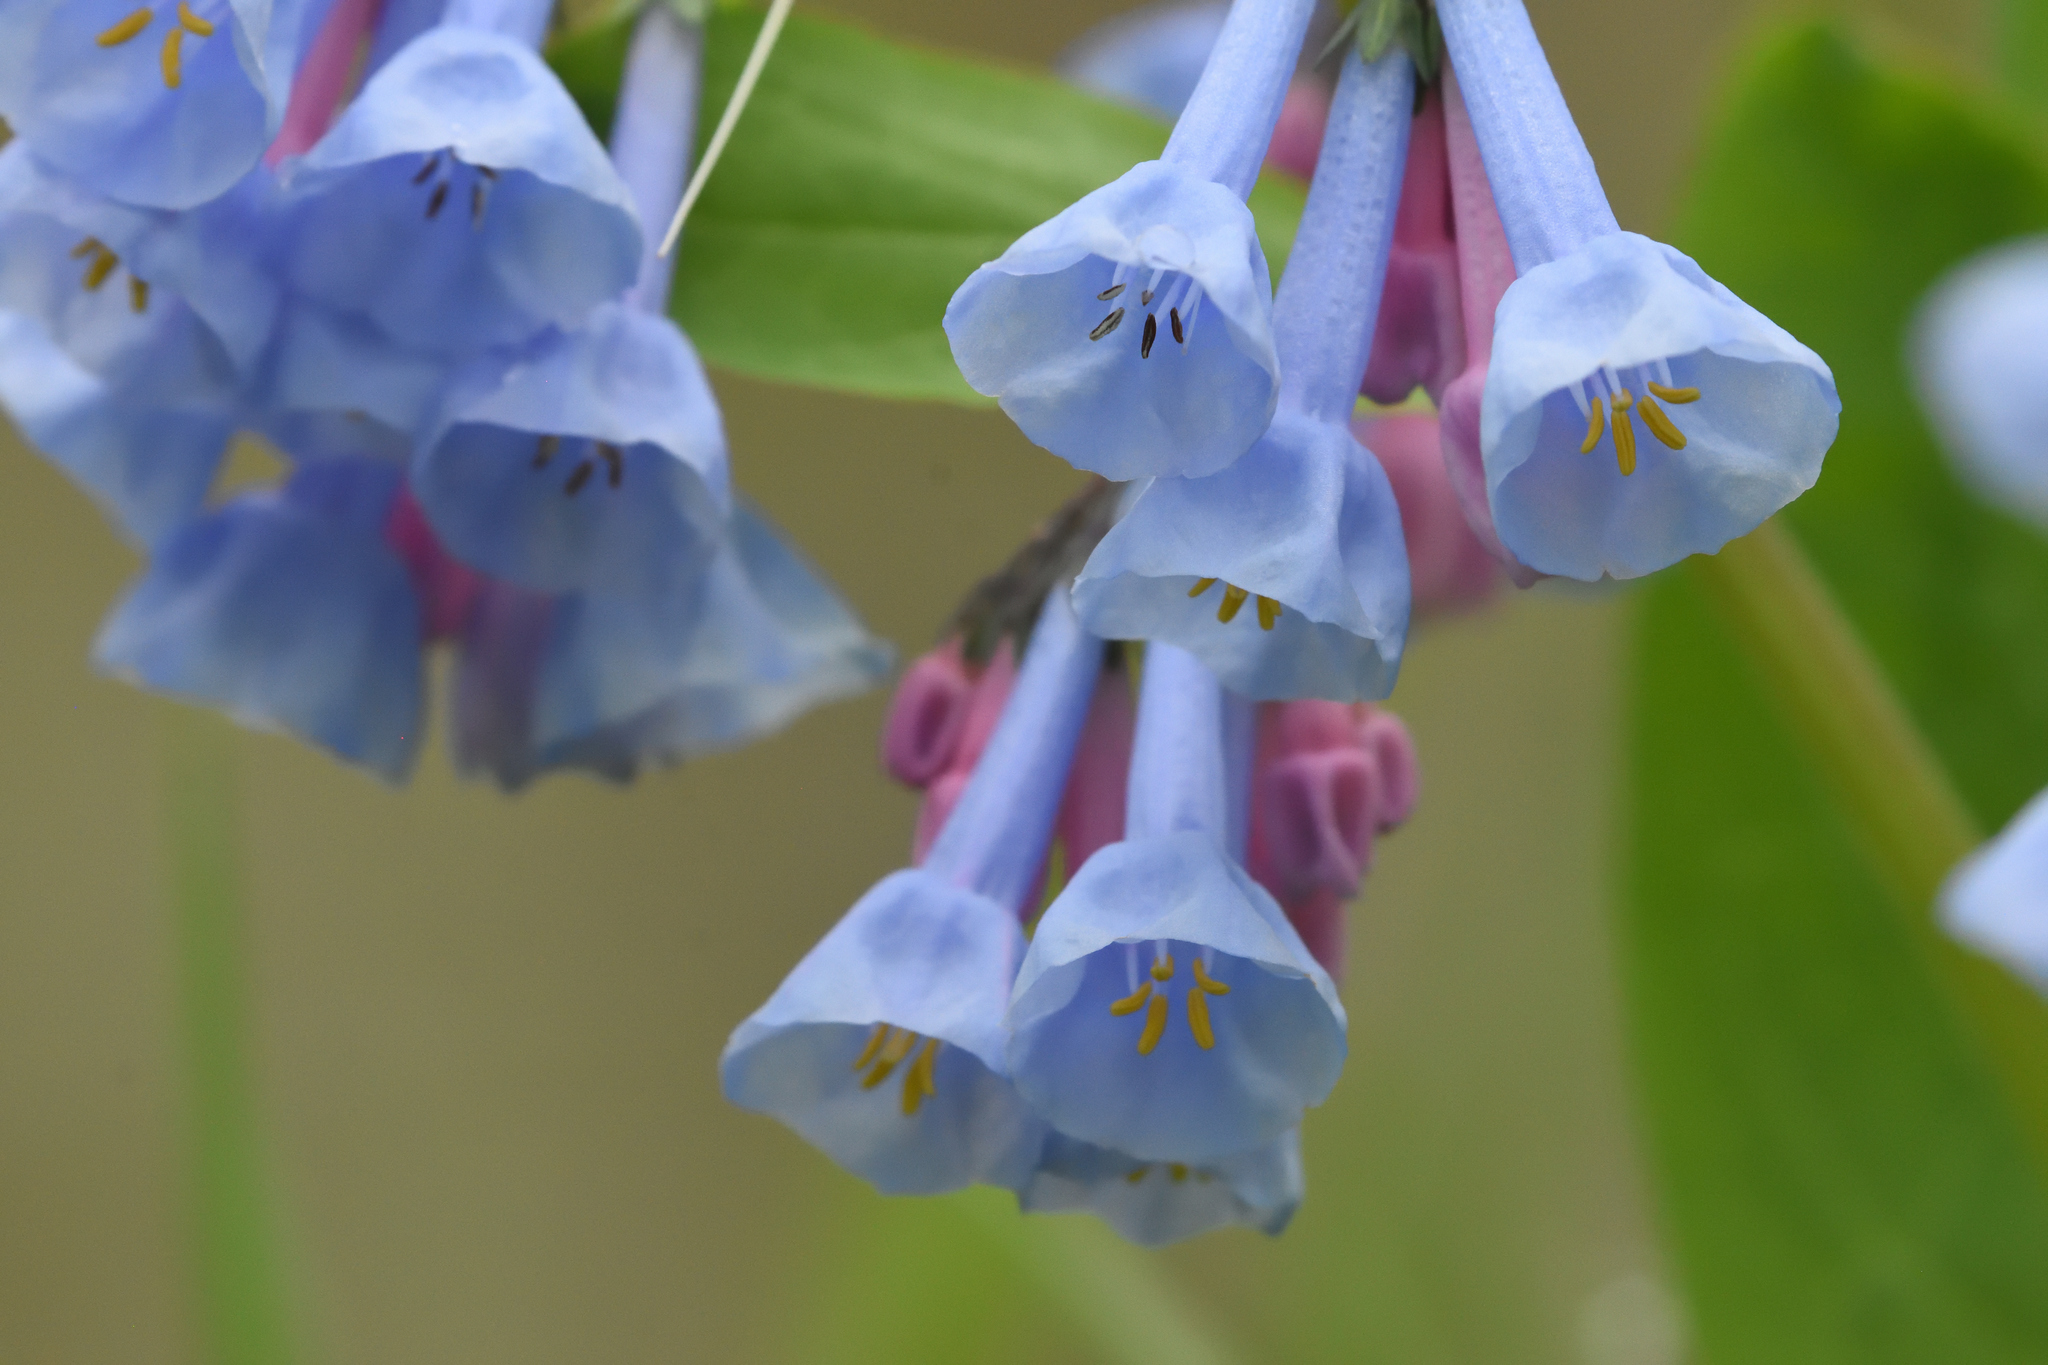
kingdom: Plantae
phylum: Tracheophyta
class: Magnoliopsida
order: Boraginales
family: Boraginaceae
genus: Mertensia
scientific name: Mertensia virginica
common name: Virginia bluebells
